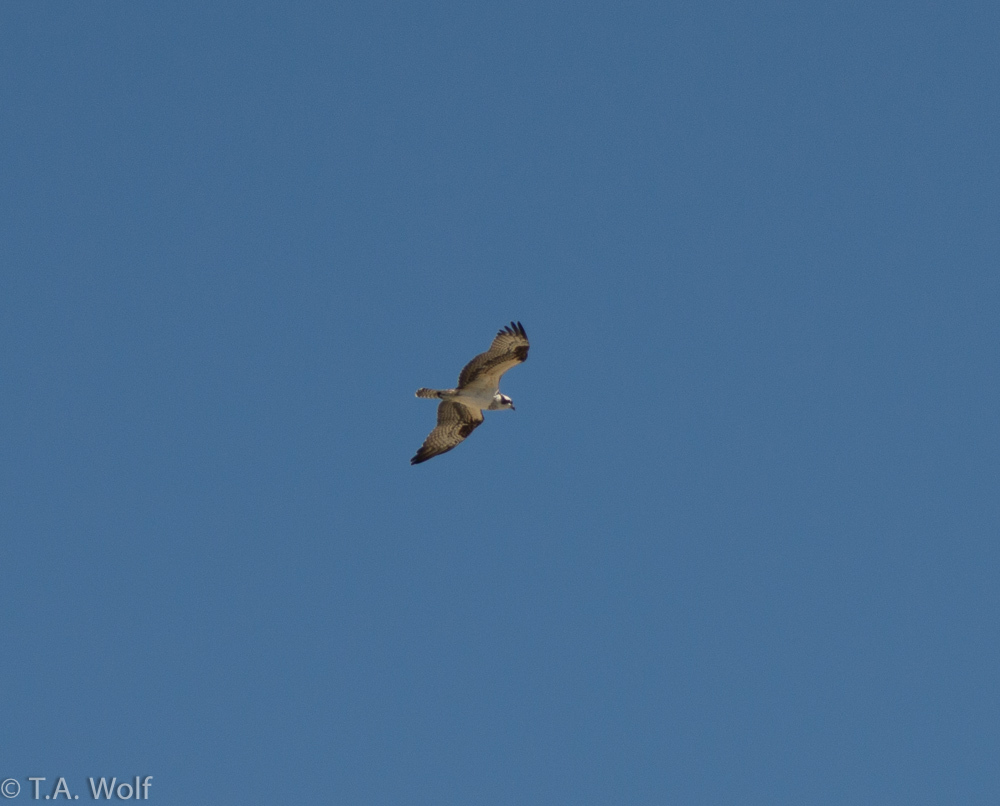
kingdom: Animalia
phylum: Chordata
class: Aves
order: Accipitriformes
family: Pandionidae
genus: Pandion
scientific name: Pandion haliaetus
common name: Osprey
